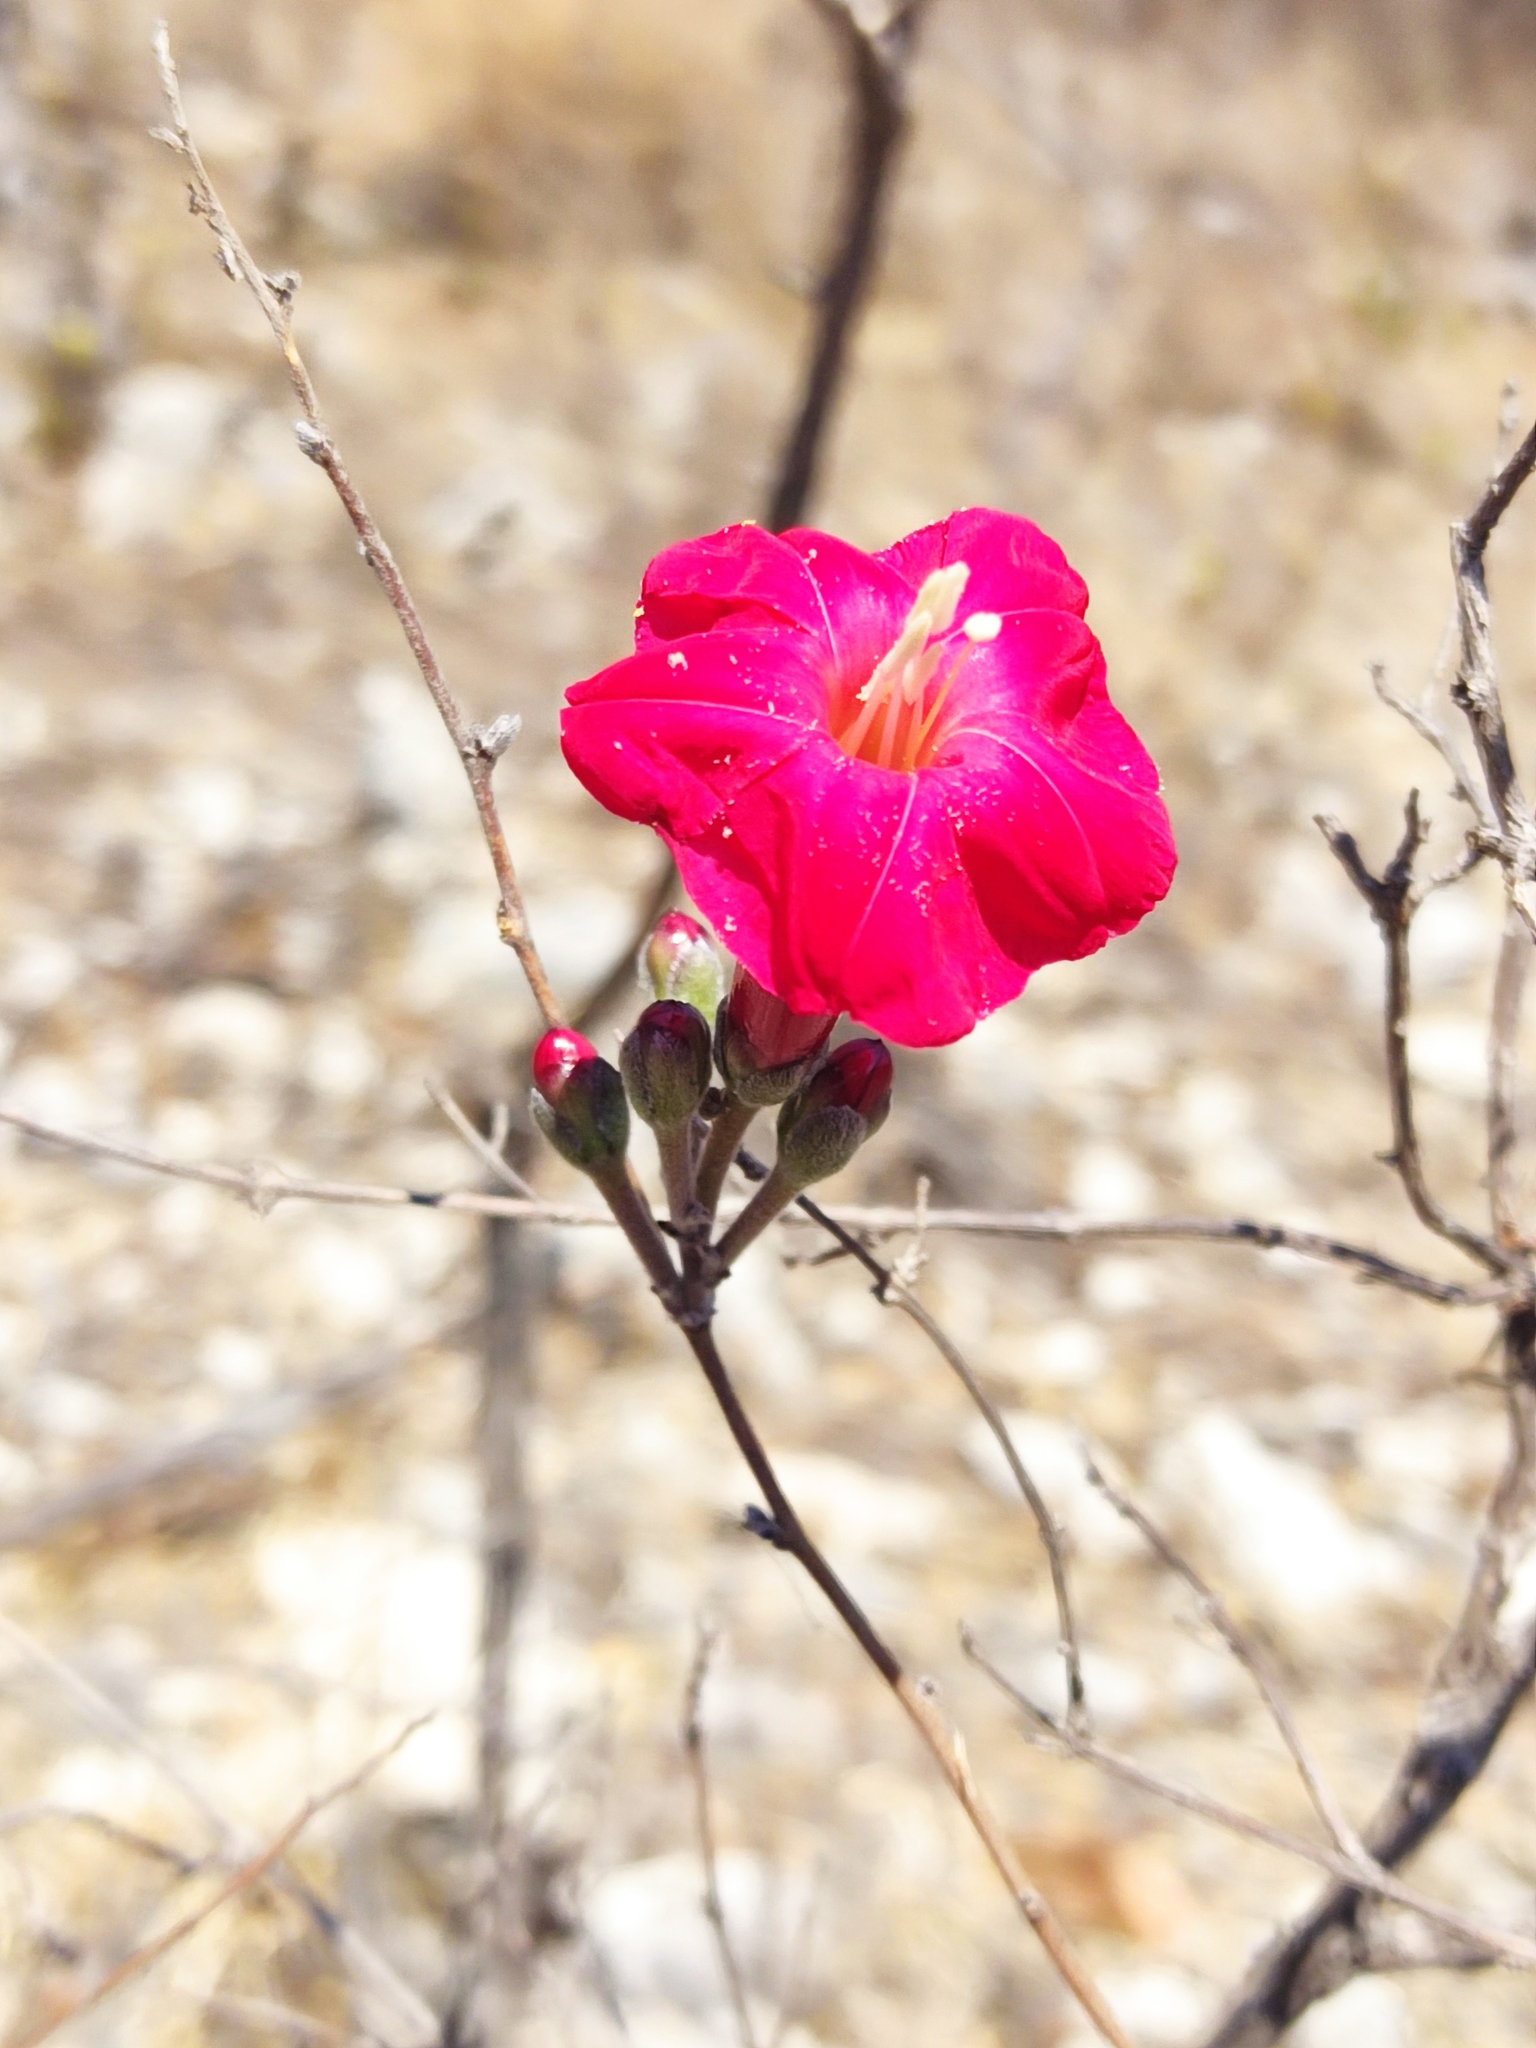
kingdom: Plantae
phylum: Tracheophyta
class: Magnoliopsida
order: Solanales
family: Convolvulaceae
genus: Ipomoea
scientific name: Ipomoea conzattii
